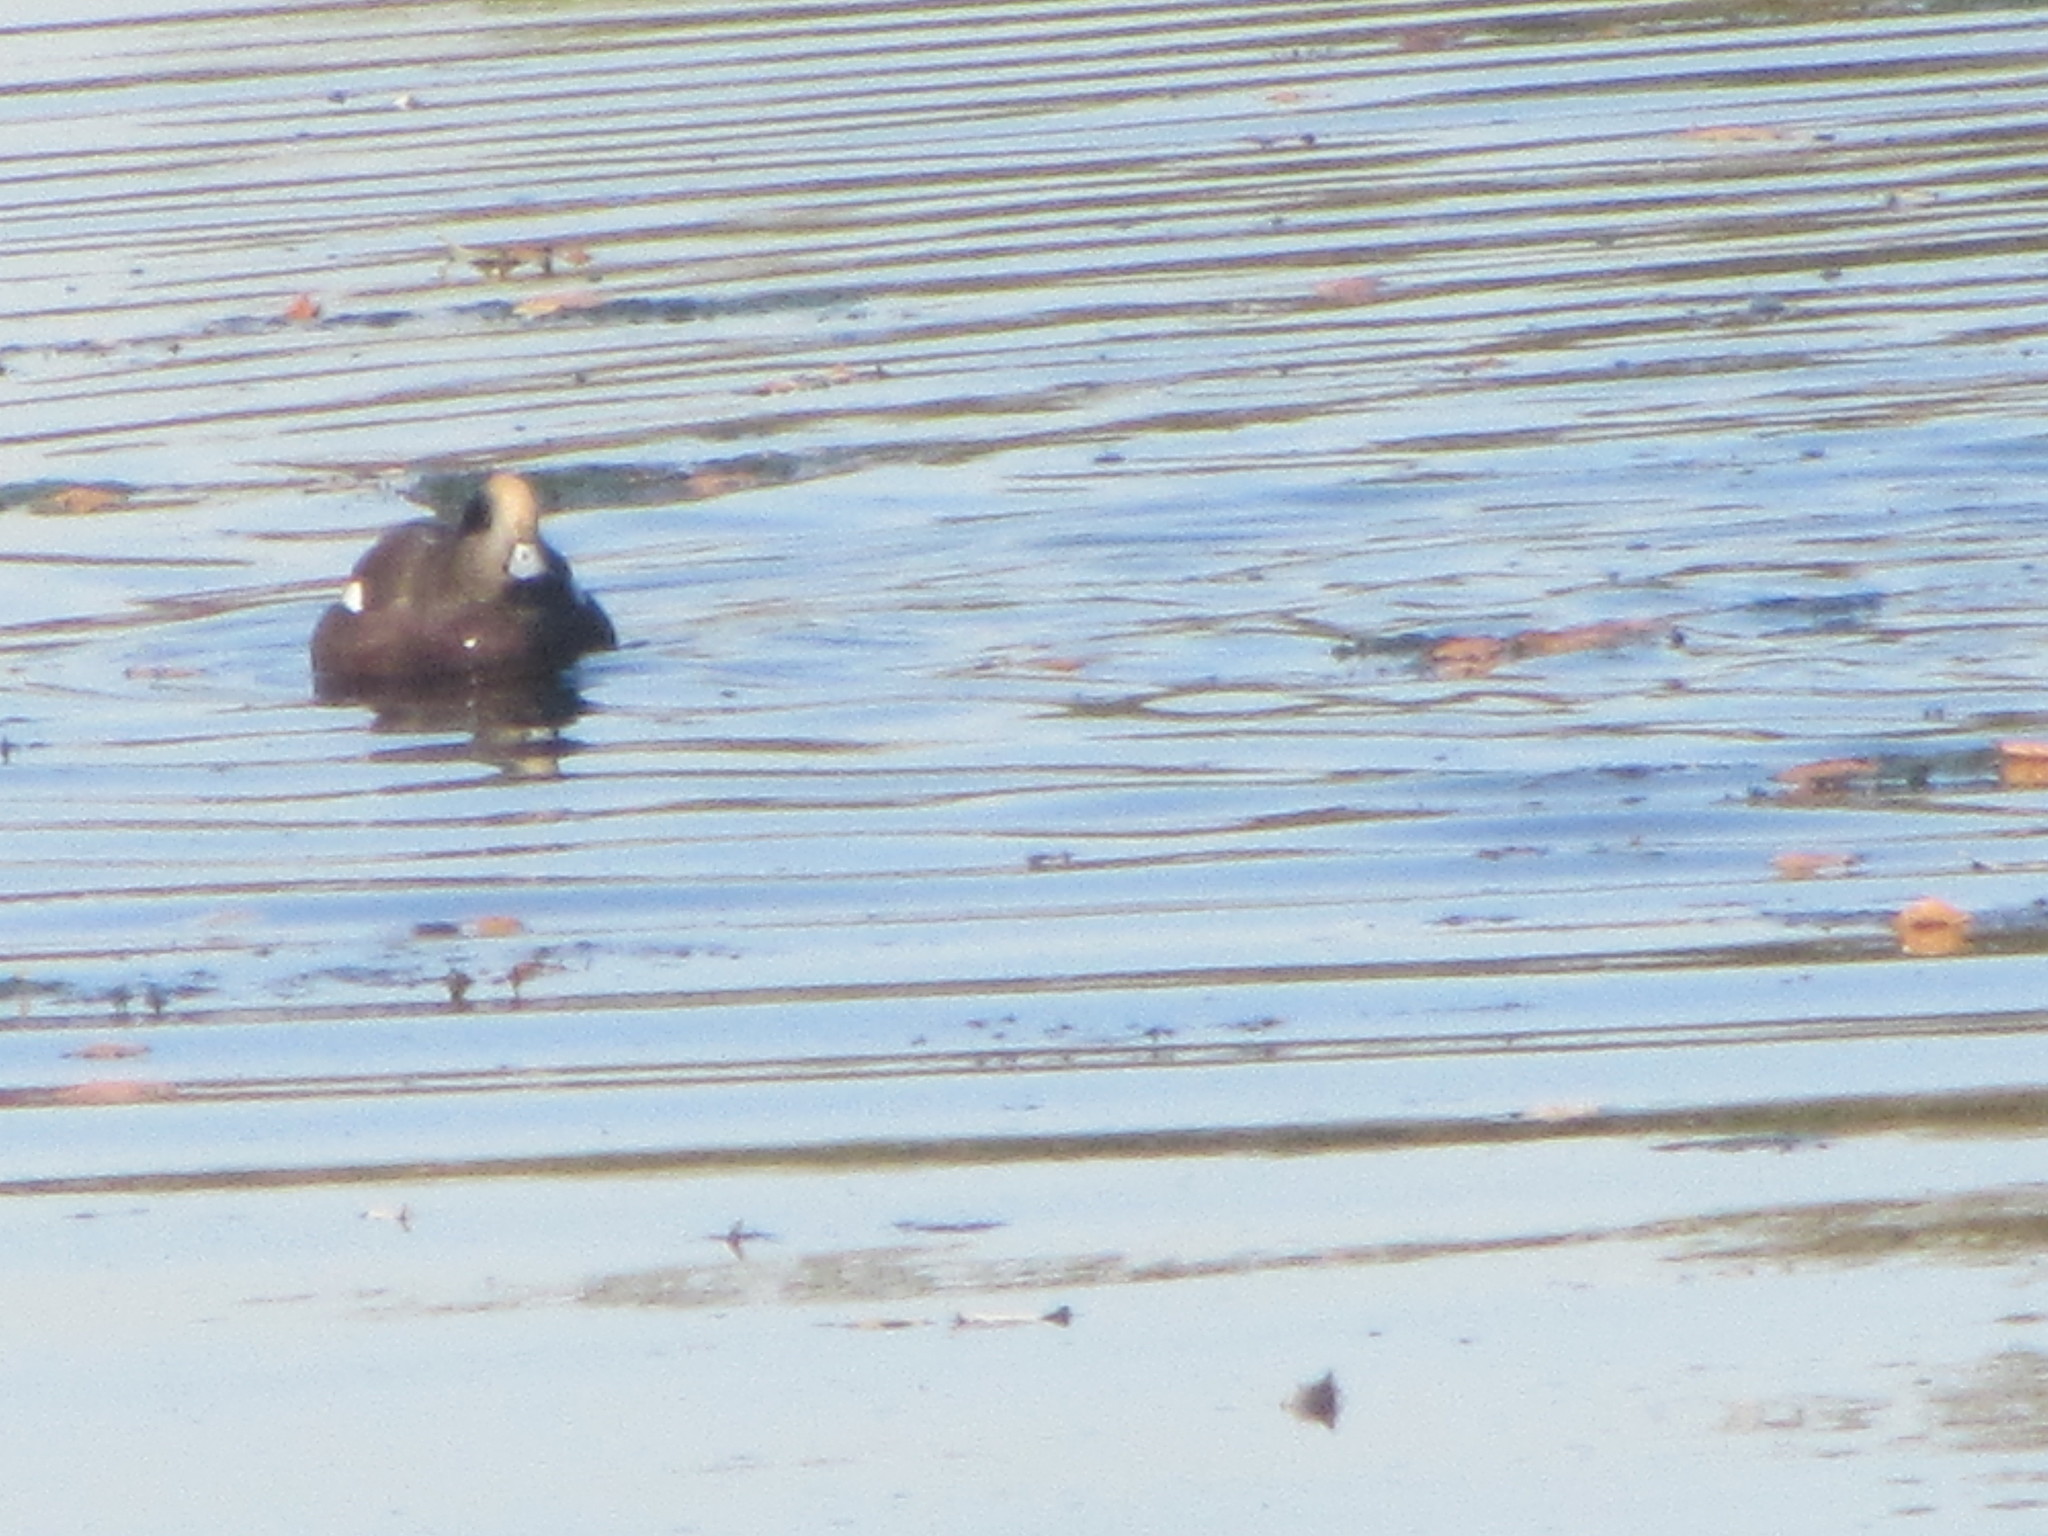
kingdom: Animalia
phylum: Chordata
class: Aves
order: Anseriformes
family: Anatidae
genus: Mareca
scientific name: Mareca americana
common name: American wigeon
